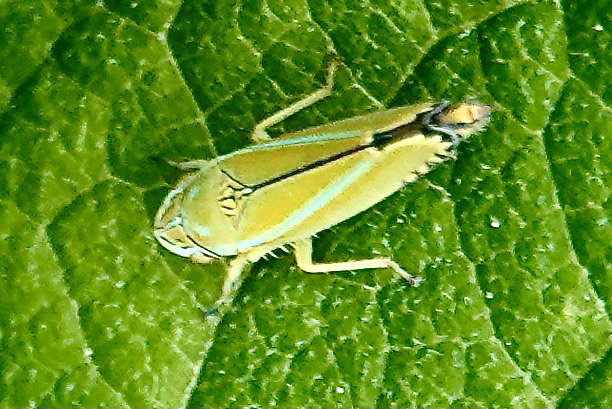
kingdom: Animalia
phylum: Arthropoda
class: Insecta
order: Hemiptera
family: Cicadellidae
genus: Graphocephala
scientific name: Graphocephala versuta
